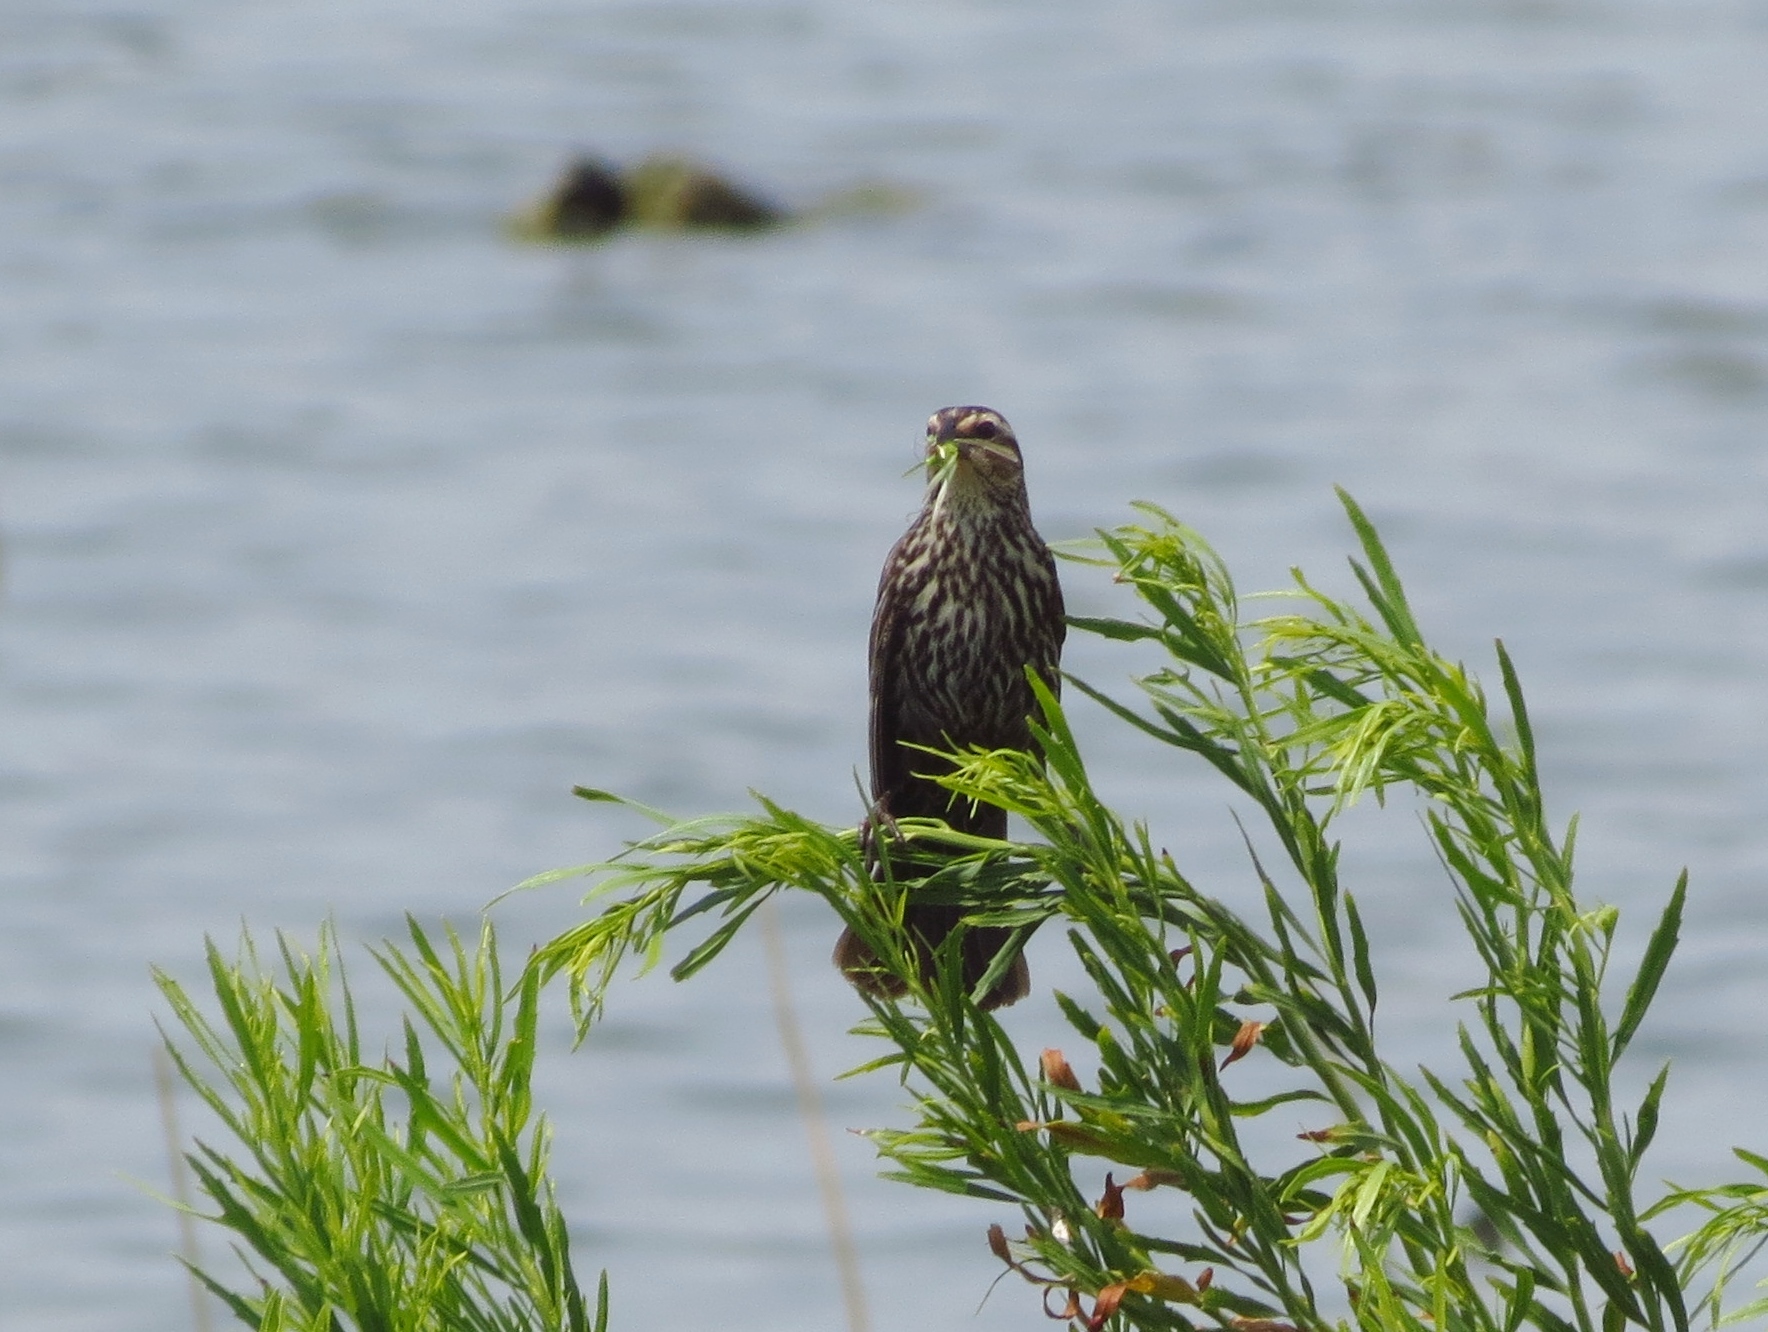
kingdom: Animalia
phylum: Chordata
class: Aves
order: Passeriformes
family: Icteridae
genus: Agelaius
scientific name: Agelaius phoeniceus
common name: Red-winged blackbird
